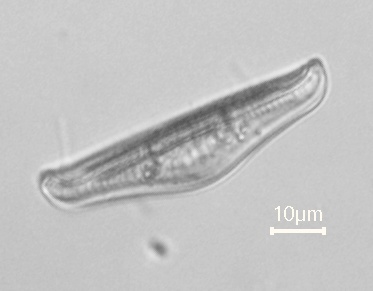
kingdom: Chromista
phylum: Ochrophyta
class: Bacillariophyceae
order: Rhopalodiales
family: Rhopalodiaceae
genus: Epithemia
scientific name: Epithemia gibba
